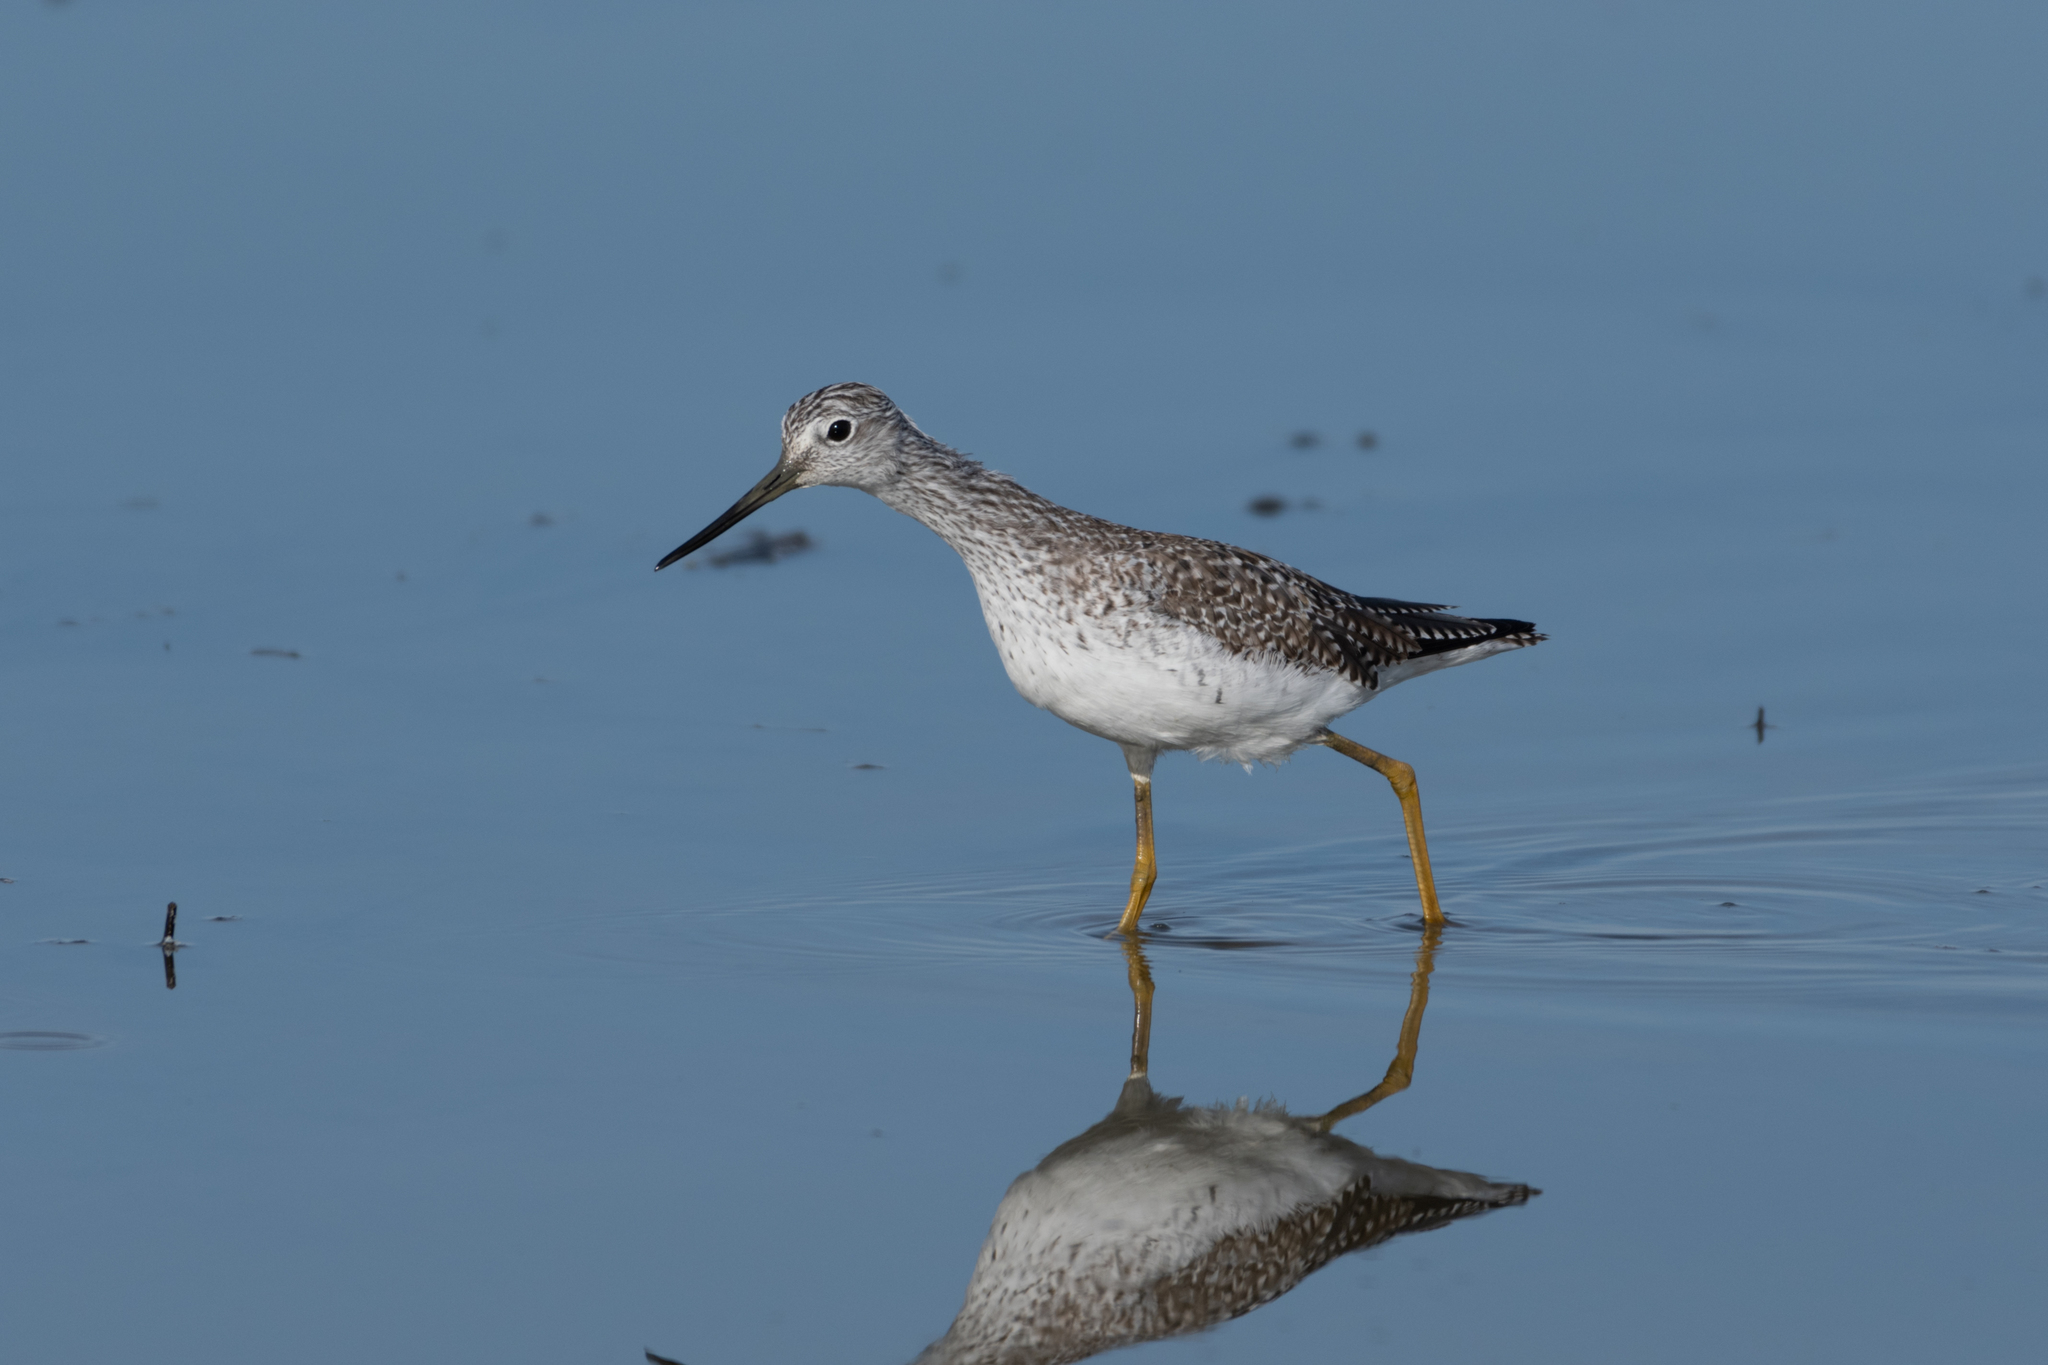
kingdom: Animalia
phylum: Chordata
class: Aves
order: Charadriiformes
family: Scolopacidae
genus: Tringa
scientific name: Tringa melanoleuca
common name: Greater yellowlegs
